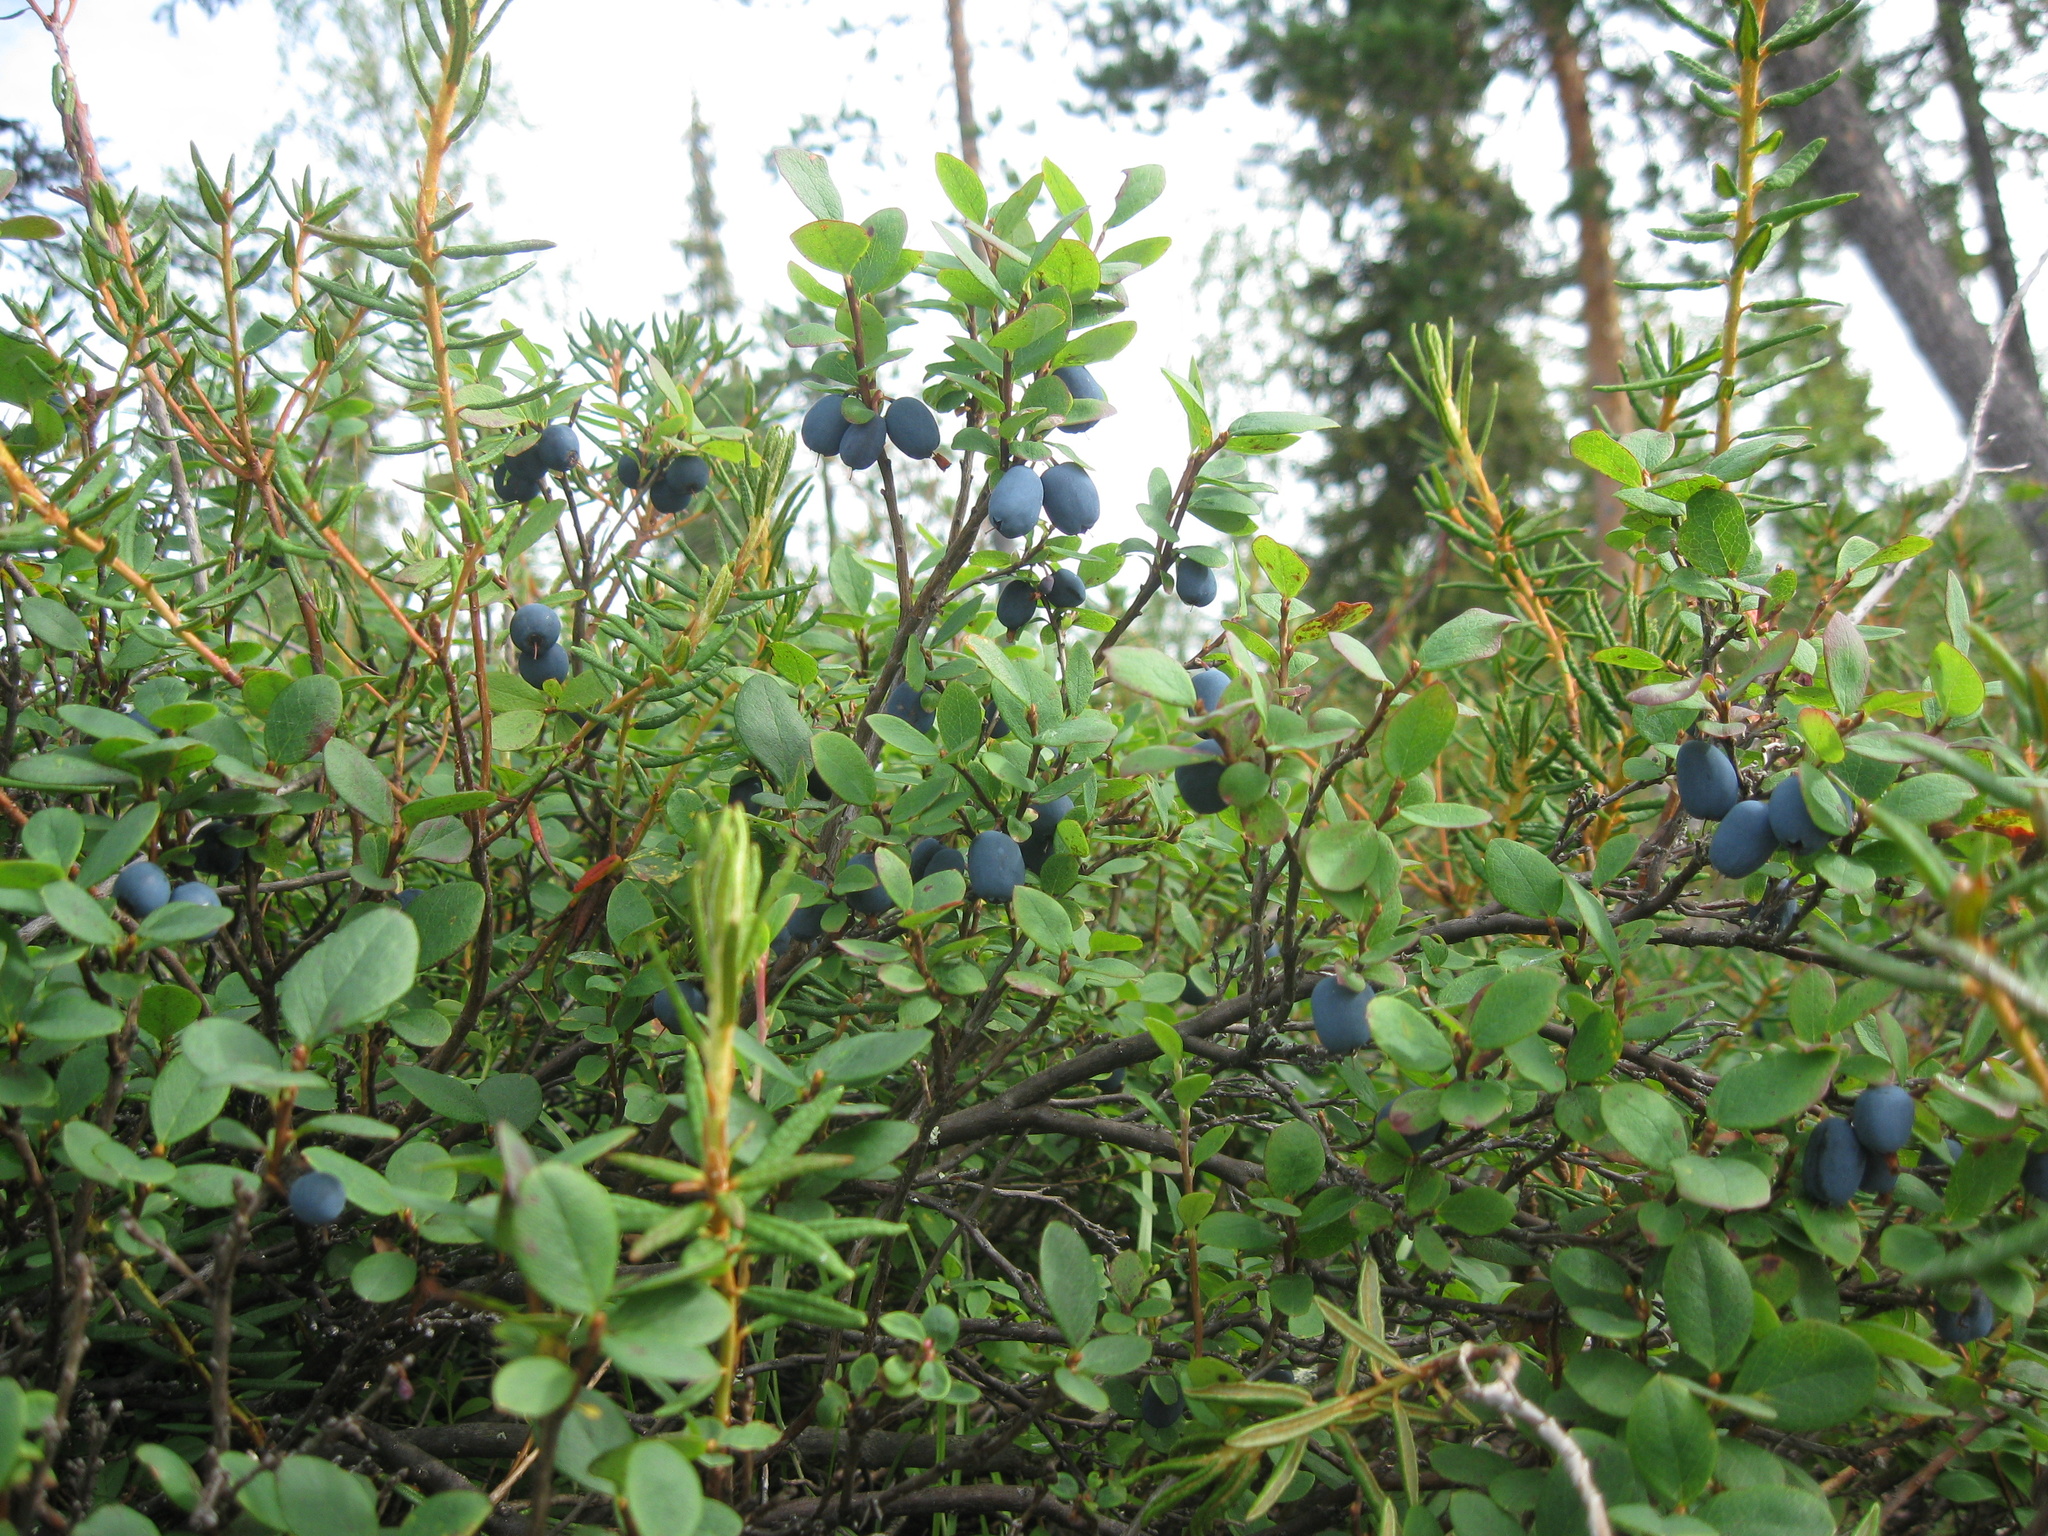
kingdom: Plantae
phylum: Tracheophyta
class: Magnoliopsida
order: Ericales
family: Ericaceae
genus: Vaccinium
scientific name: Vaccinium uliginosum
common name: Bog bilberry
